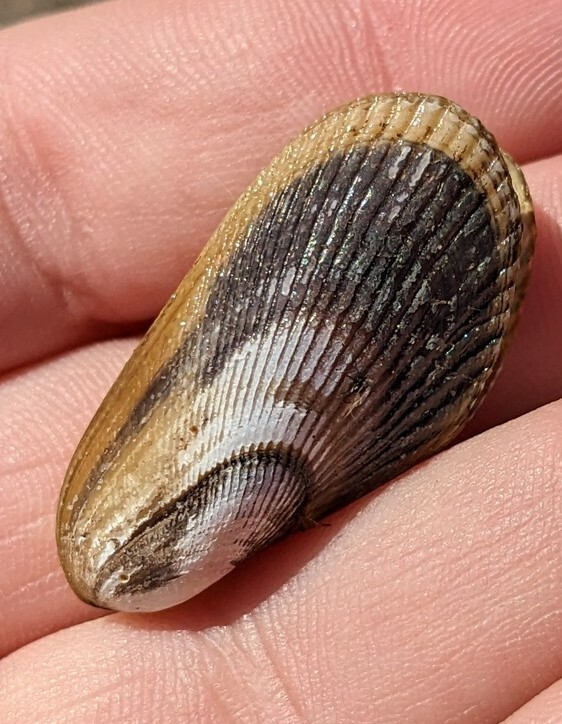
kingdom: Animalia
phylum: Mollusca
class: Bivalvia
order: Mytilida
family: Mytilidae
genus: Geukensia
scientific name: Geukensia demissa
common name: Ribbed mussel
